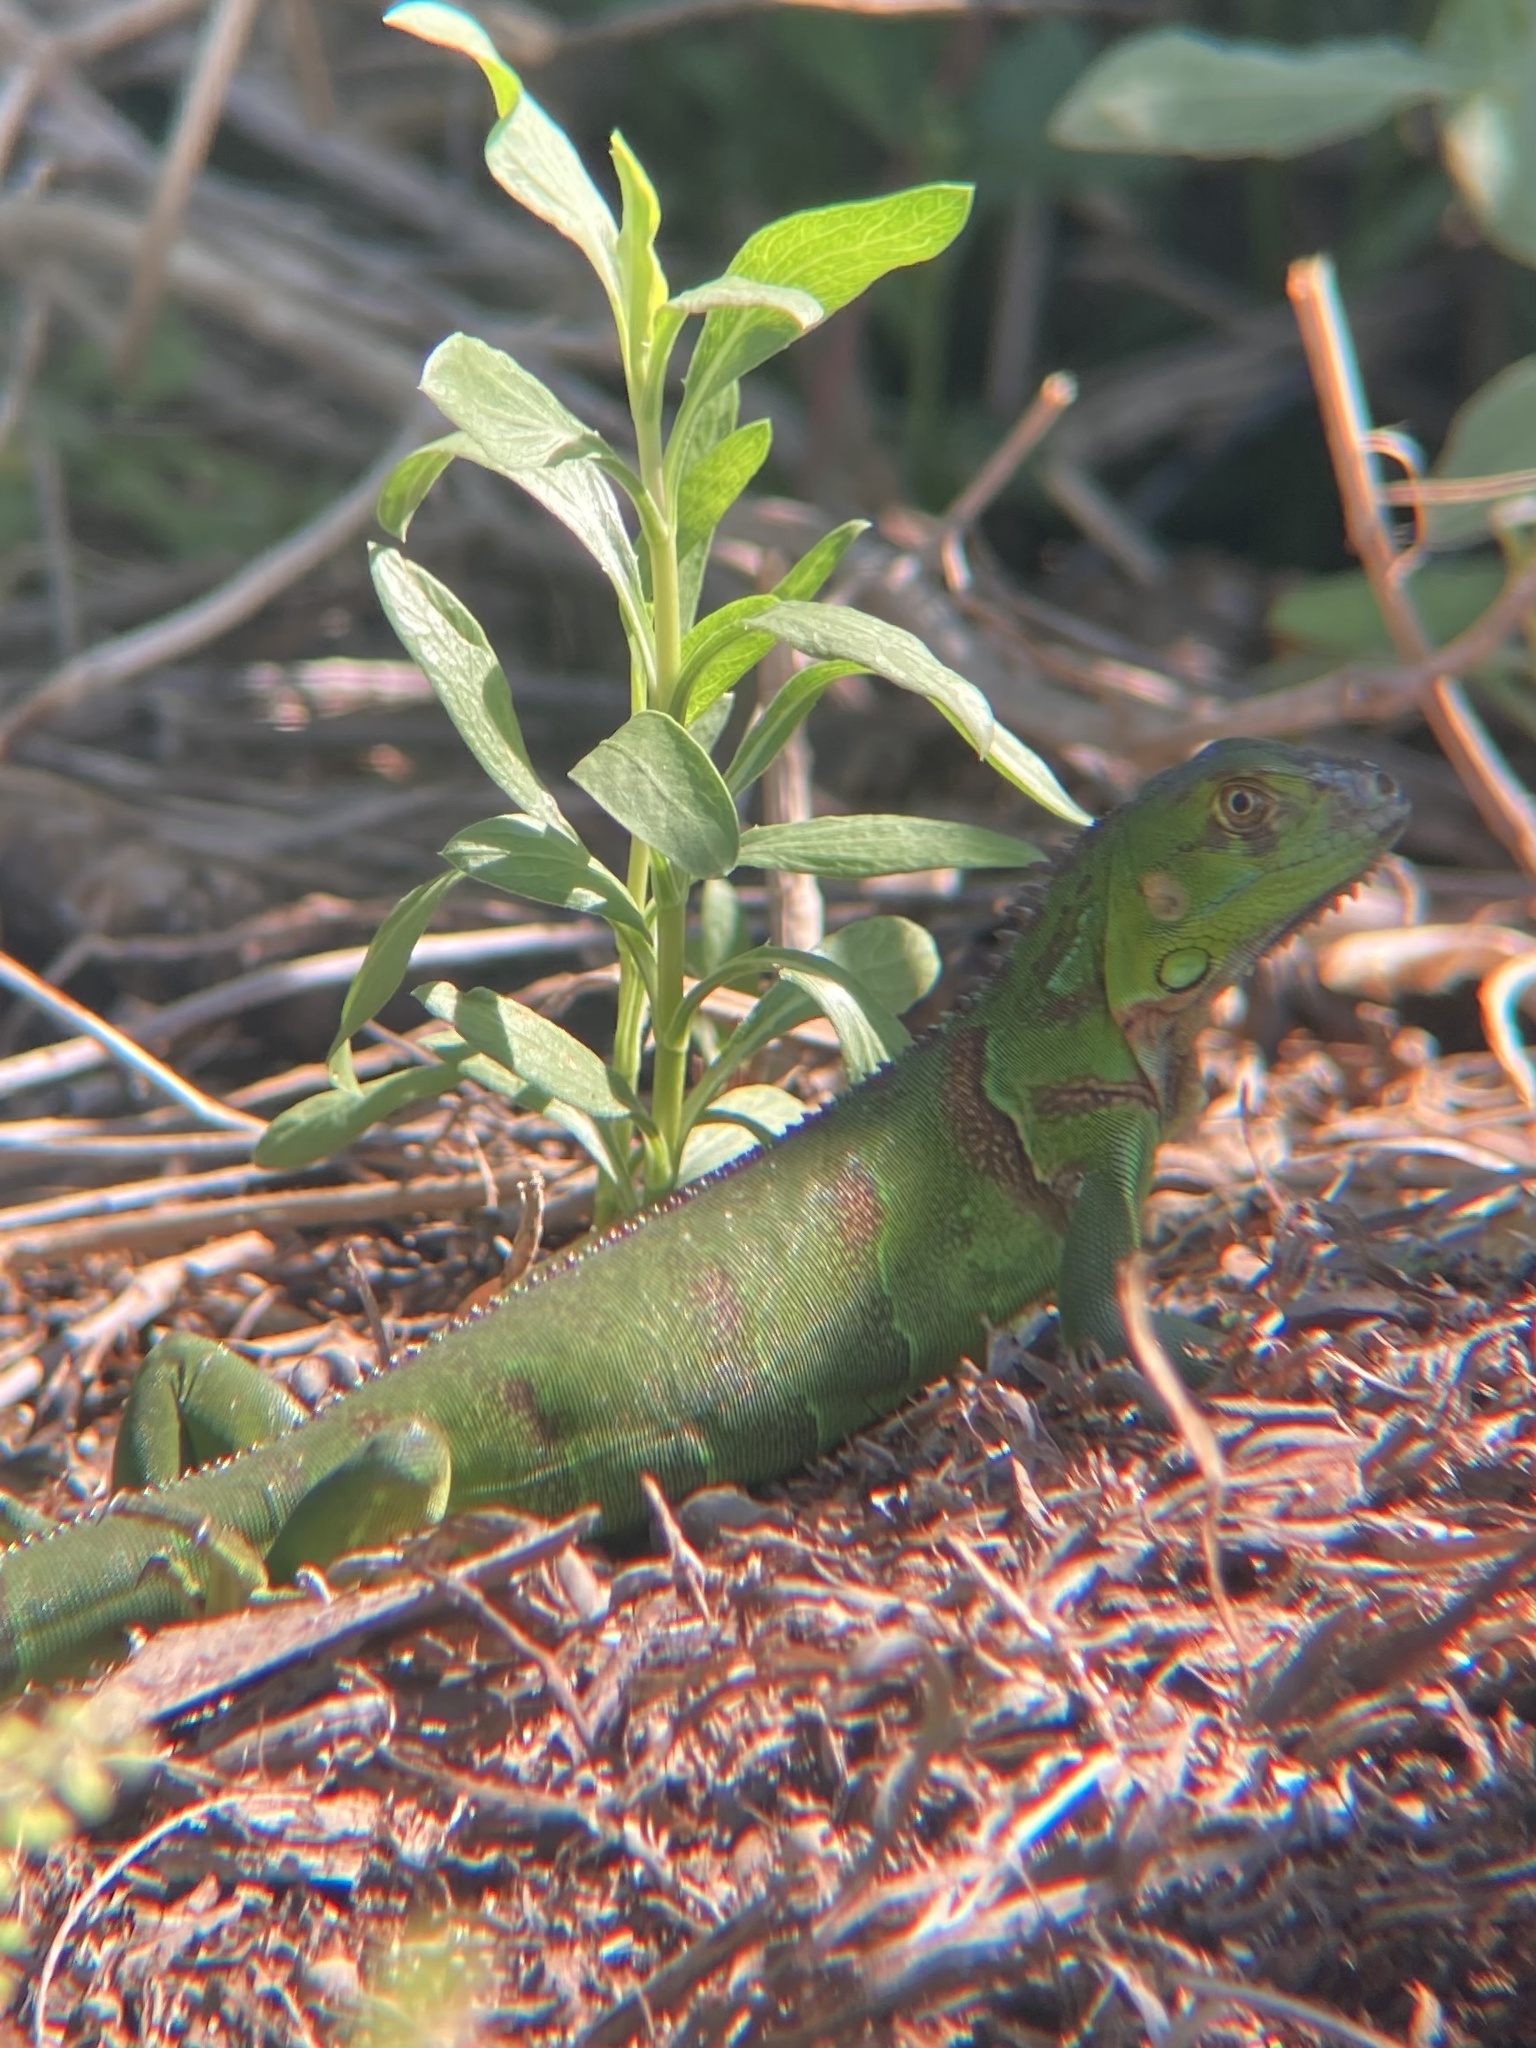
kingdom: Animalia
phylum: Chordata
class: Squamata
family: Iguanidae
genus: Iguana
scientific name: Iguana iguana
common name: Green iguana
